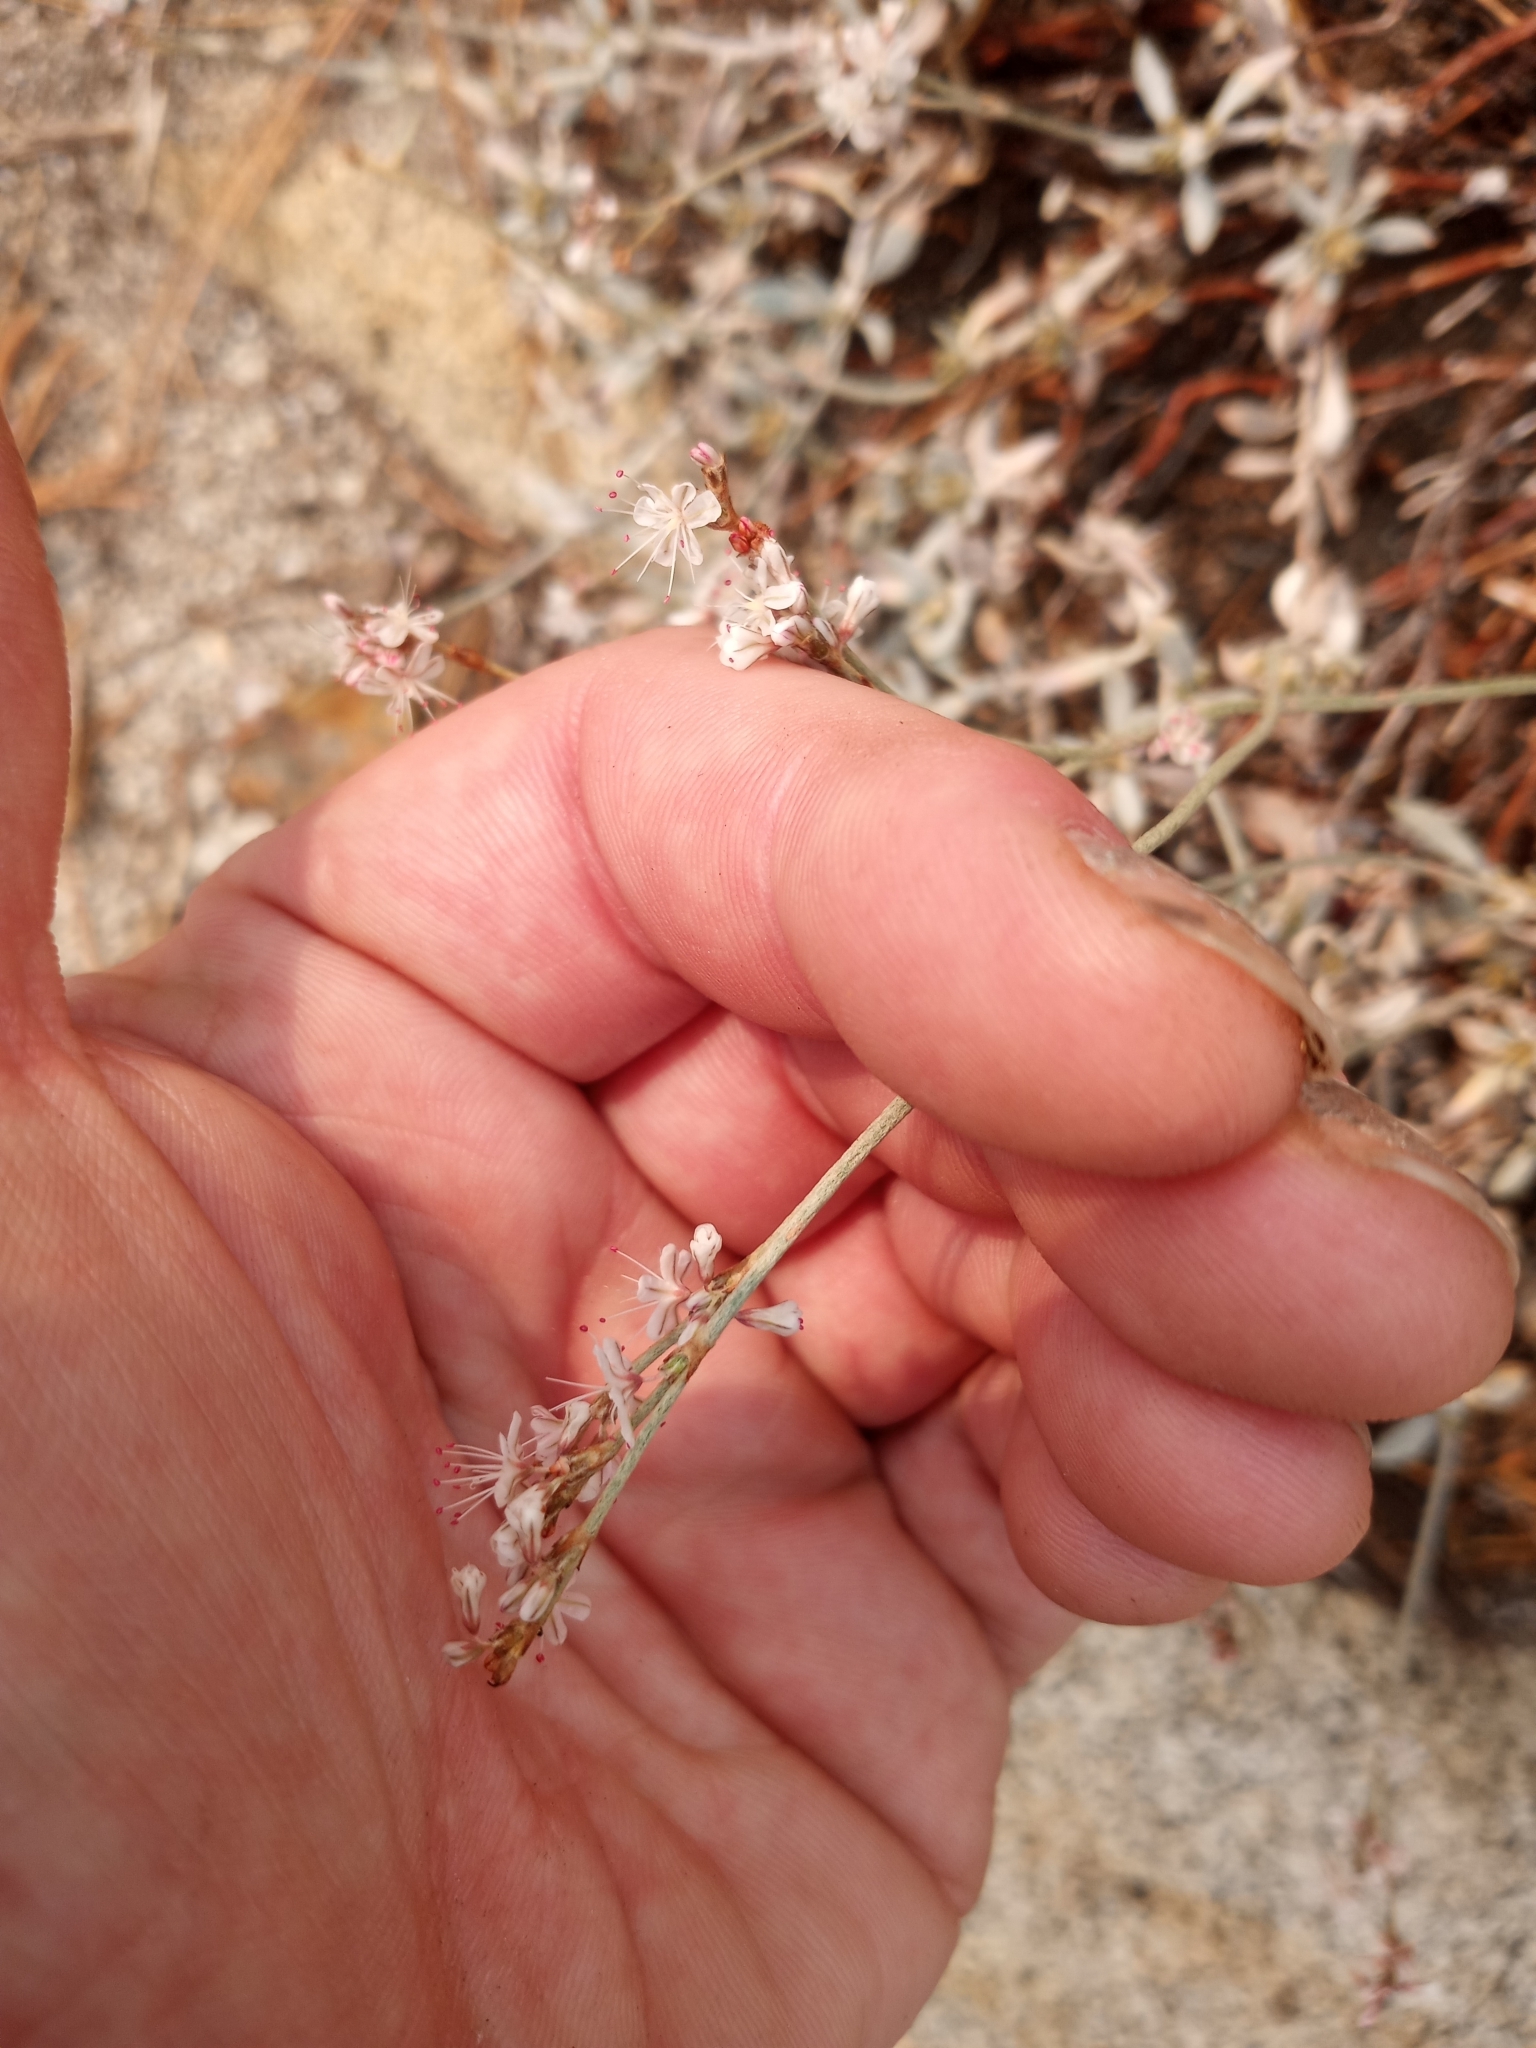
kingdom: Plantae
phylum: Tracheophyta
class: Magnoliopsida
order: Caryophyllales
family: Polygonaceae
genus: Eriogonum
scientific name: Eriogonum wrightii
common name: Bastard-sage
